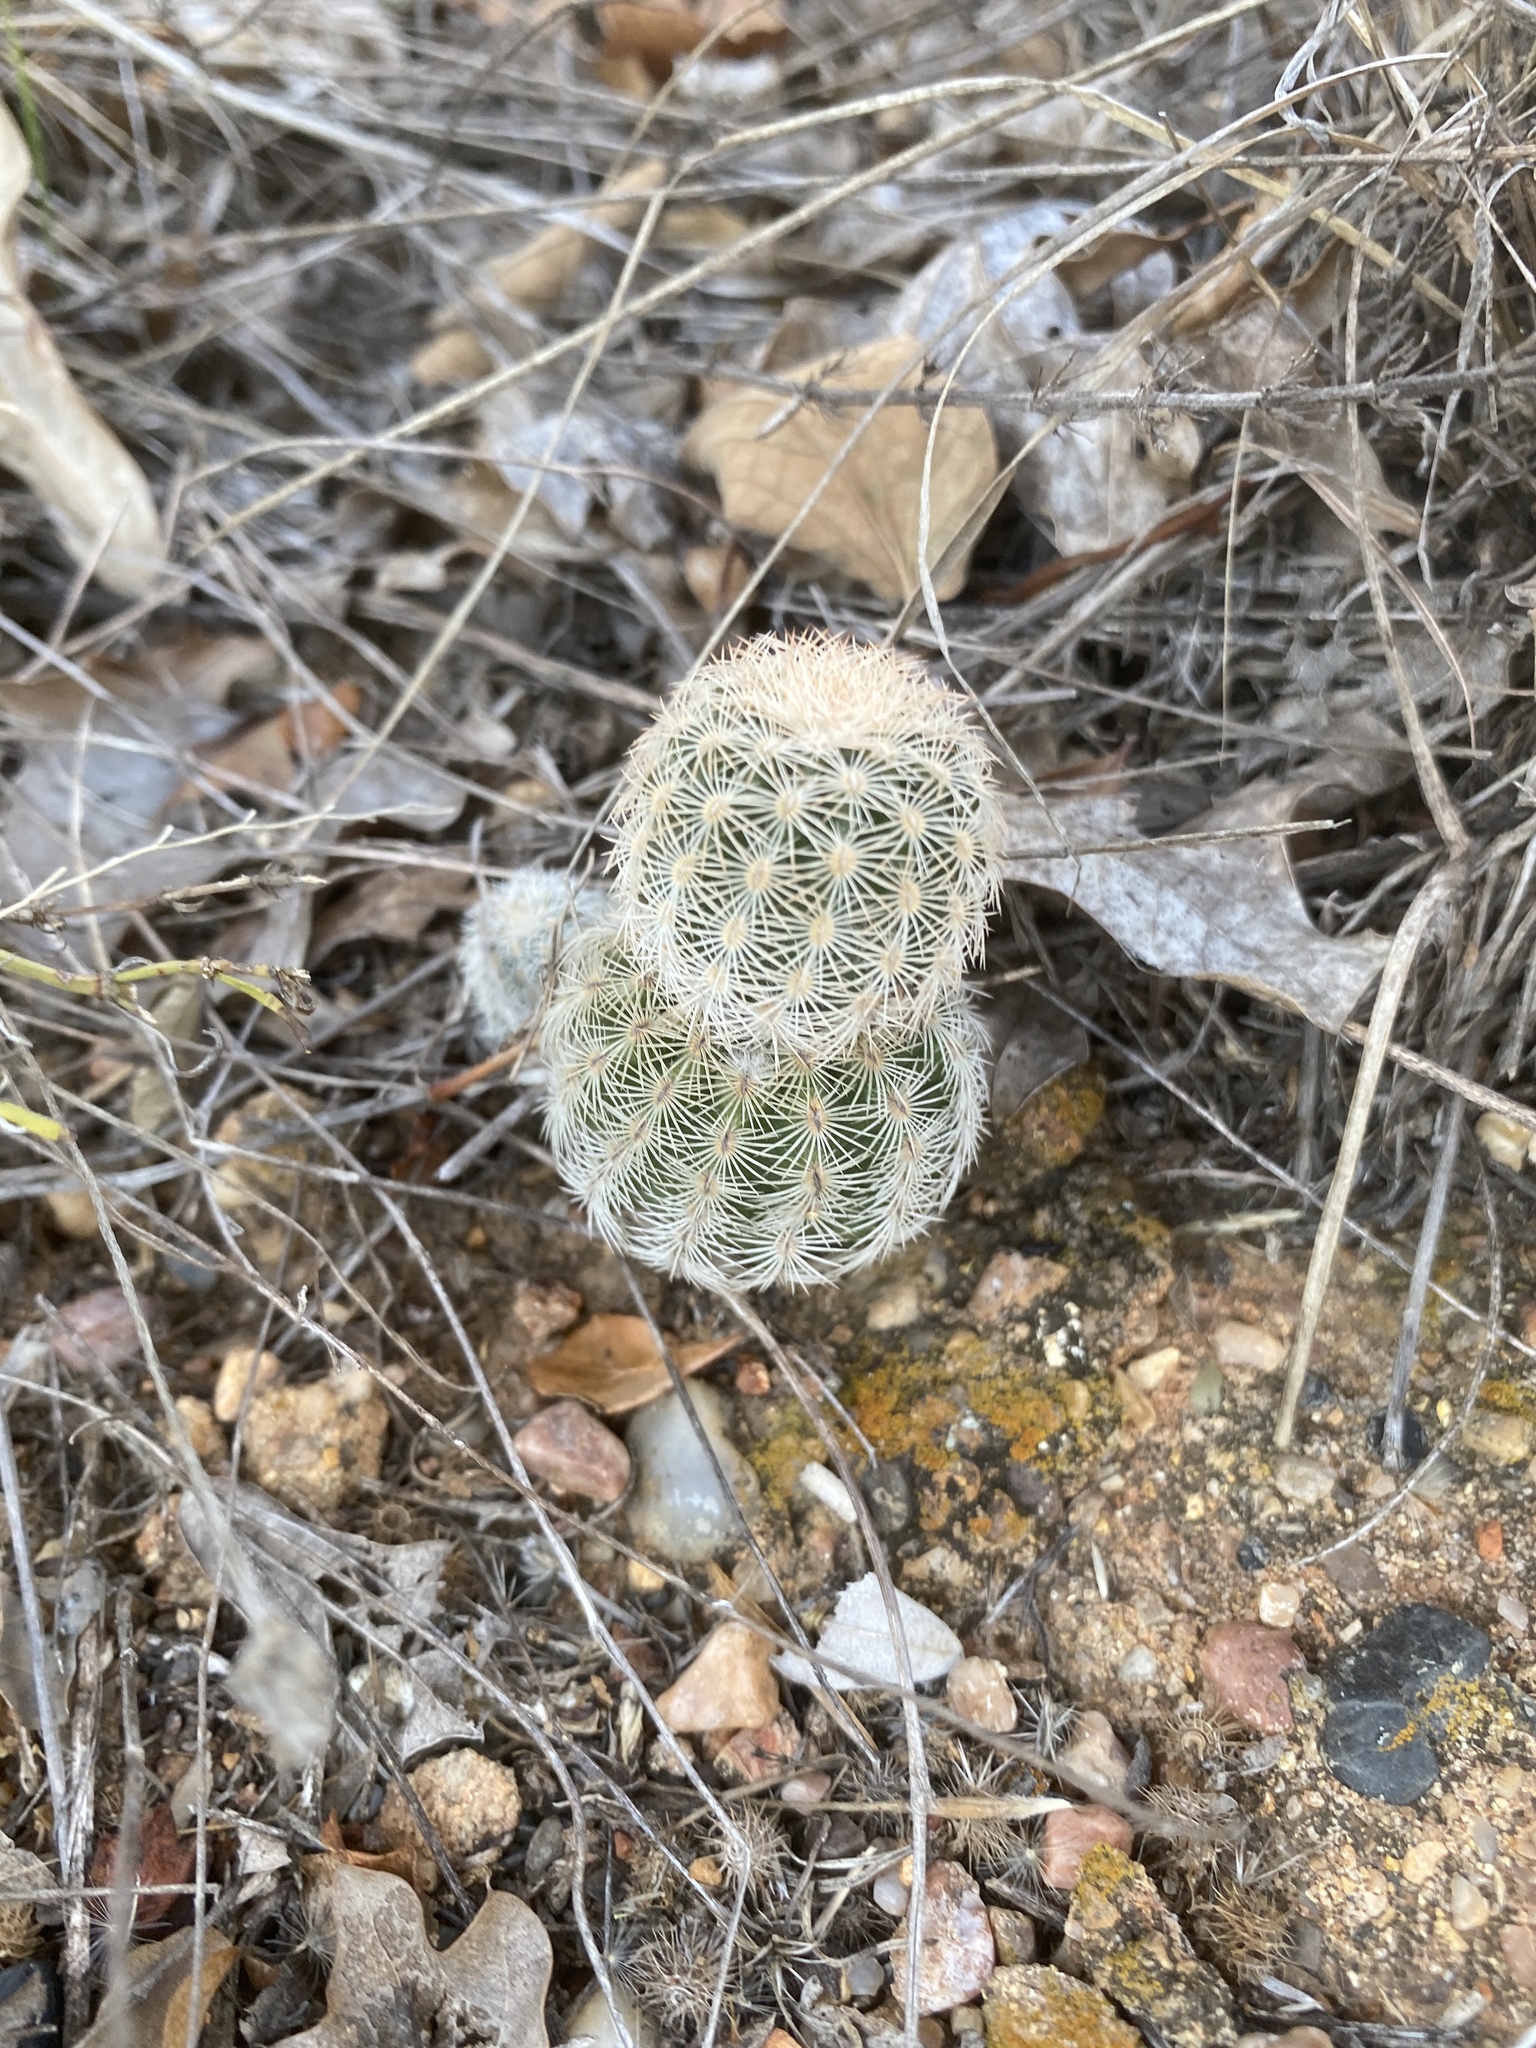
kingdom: Plantae
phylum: Tracheophyta
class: Magnoliopsida
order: Caryophyllales
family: Cactaceae
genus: Echinocereus
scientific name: Echinocereus reichenbachii
